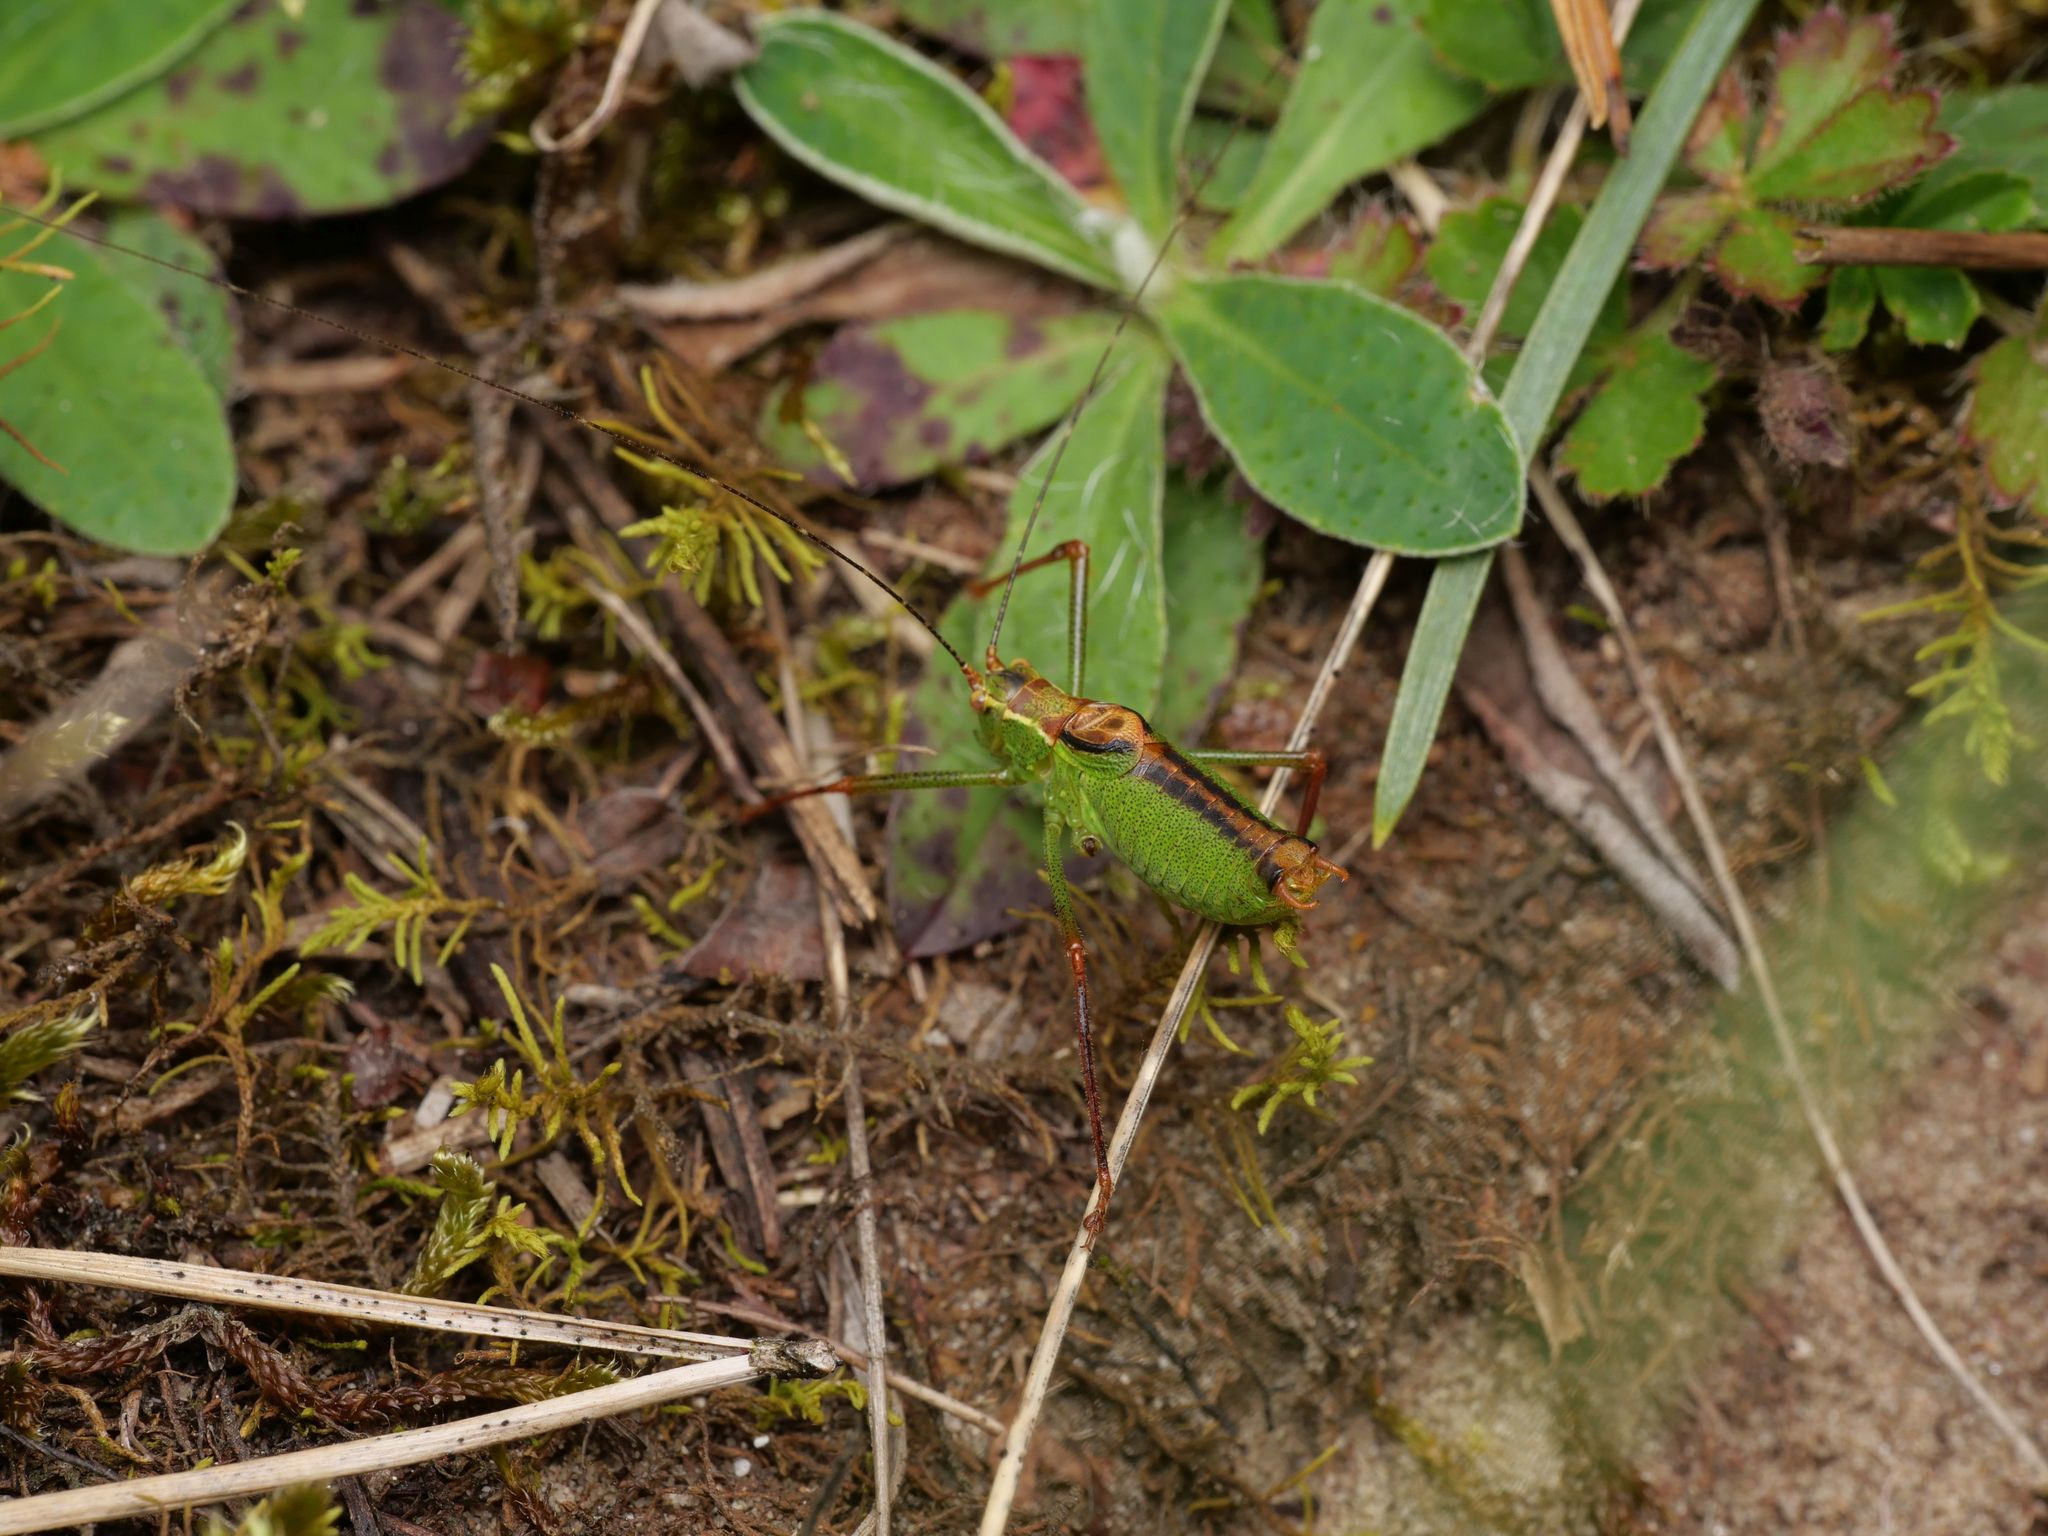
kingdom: Animalia
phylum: Arthropoda
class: Insecta
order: Orthoptera
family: Tettigoniidae
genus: Leptophyes
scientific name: Leptophyes punctatissima
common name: Speckled bush-cricket
